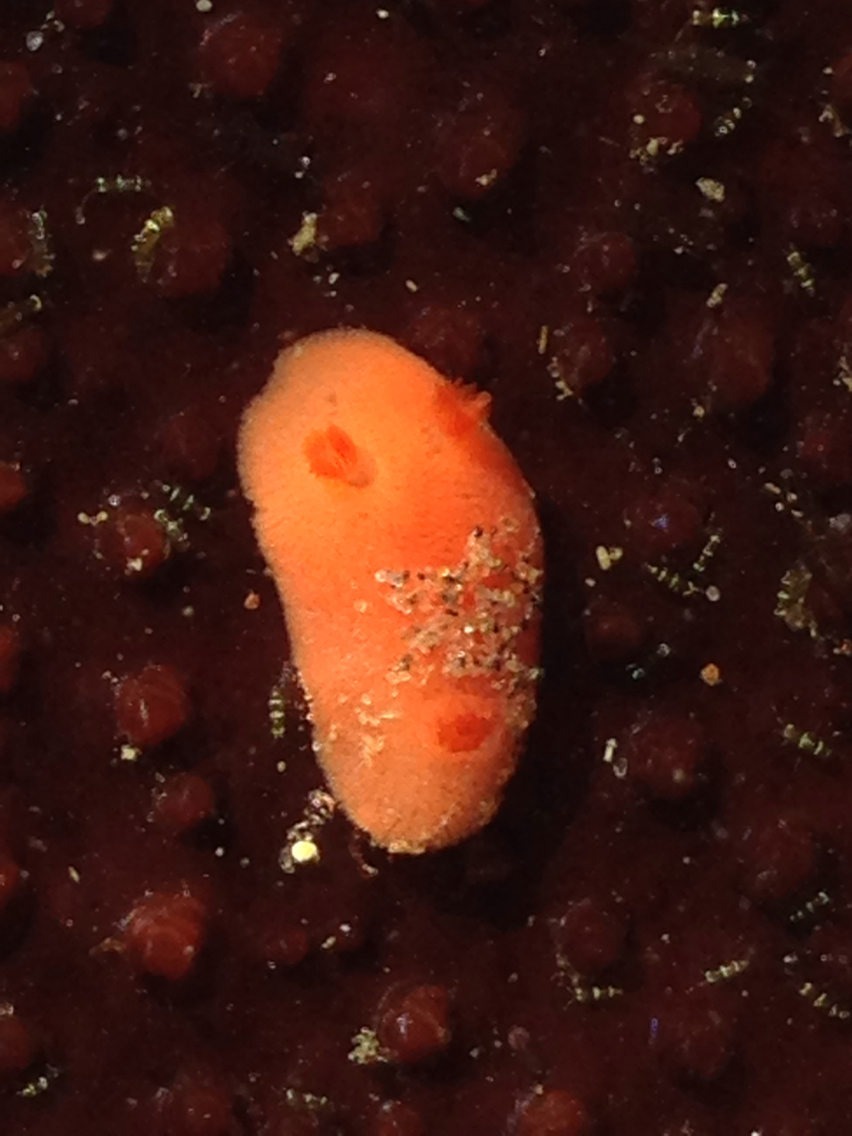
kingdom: Animalia
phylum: Mollusca
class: Gastropoda
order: Nudibranchia
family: Discodorididae
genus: Rostanga
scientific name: Rostanga pulchra
